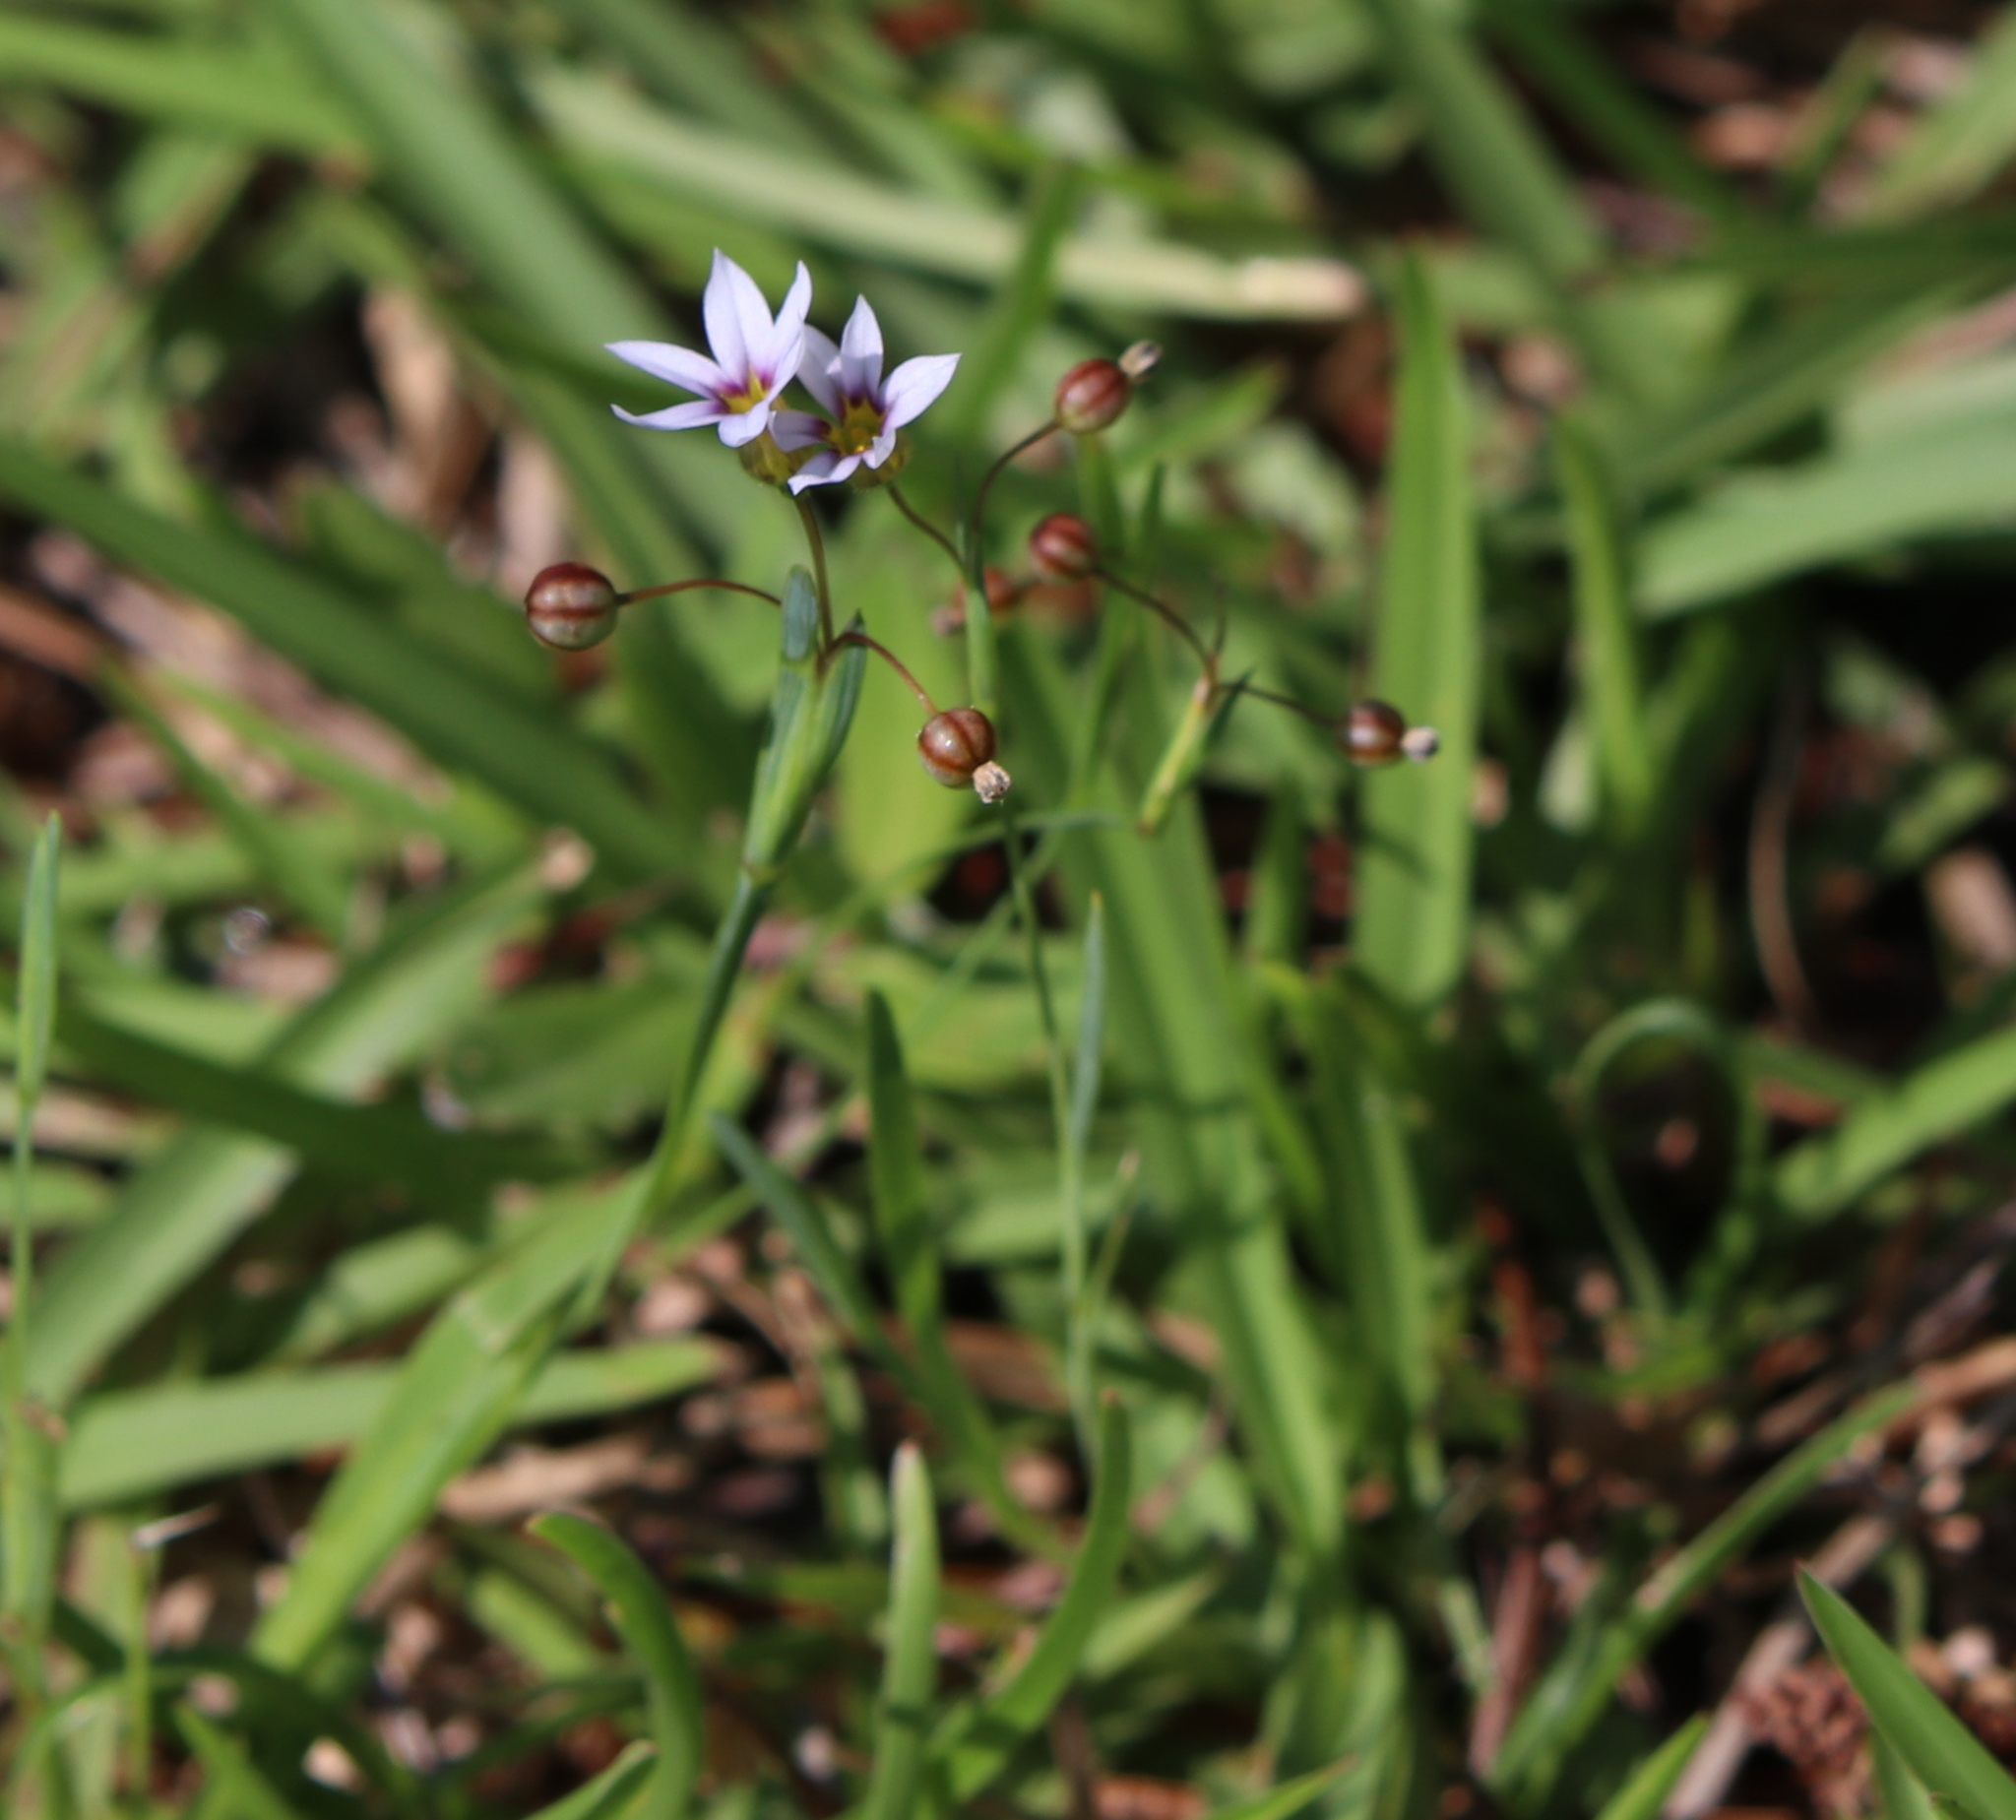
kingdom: Plantae
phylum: Tracheophyta
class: Liliopsida
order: Asparagales
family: Iridaceae
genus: Sisyrinchium
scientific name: Sisyrinchium micranthum
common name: Bermuda pigroot
